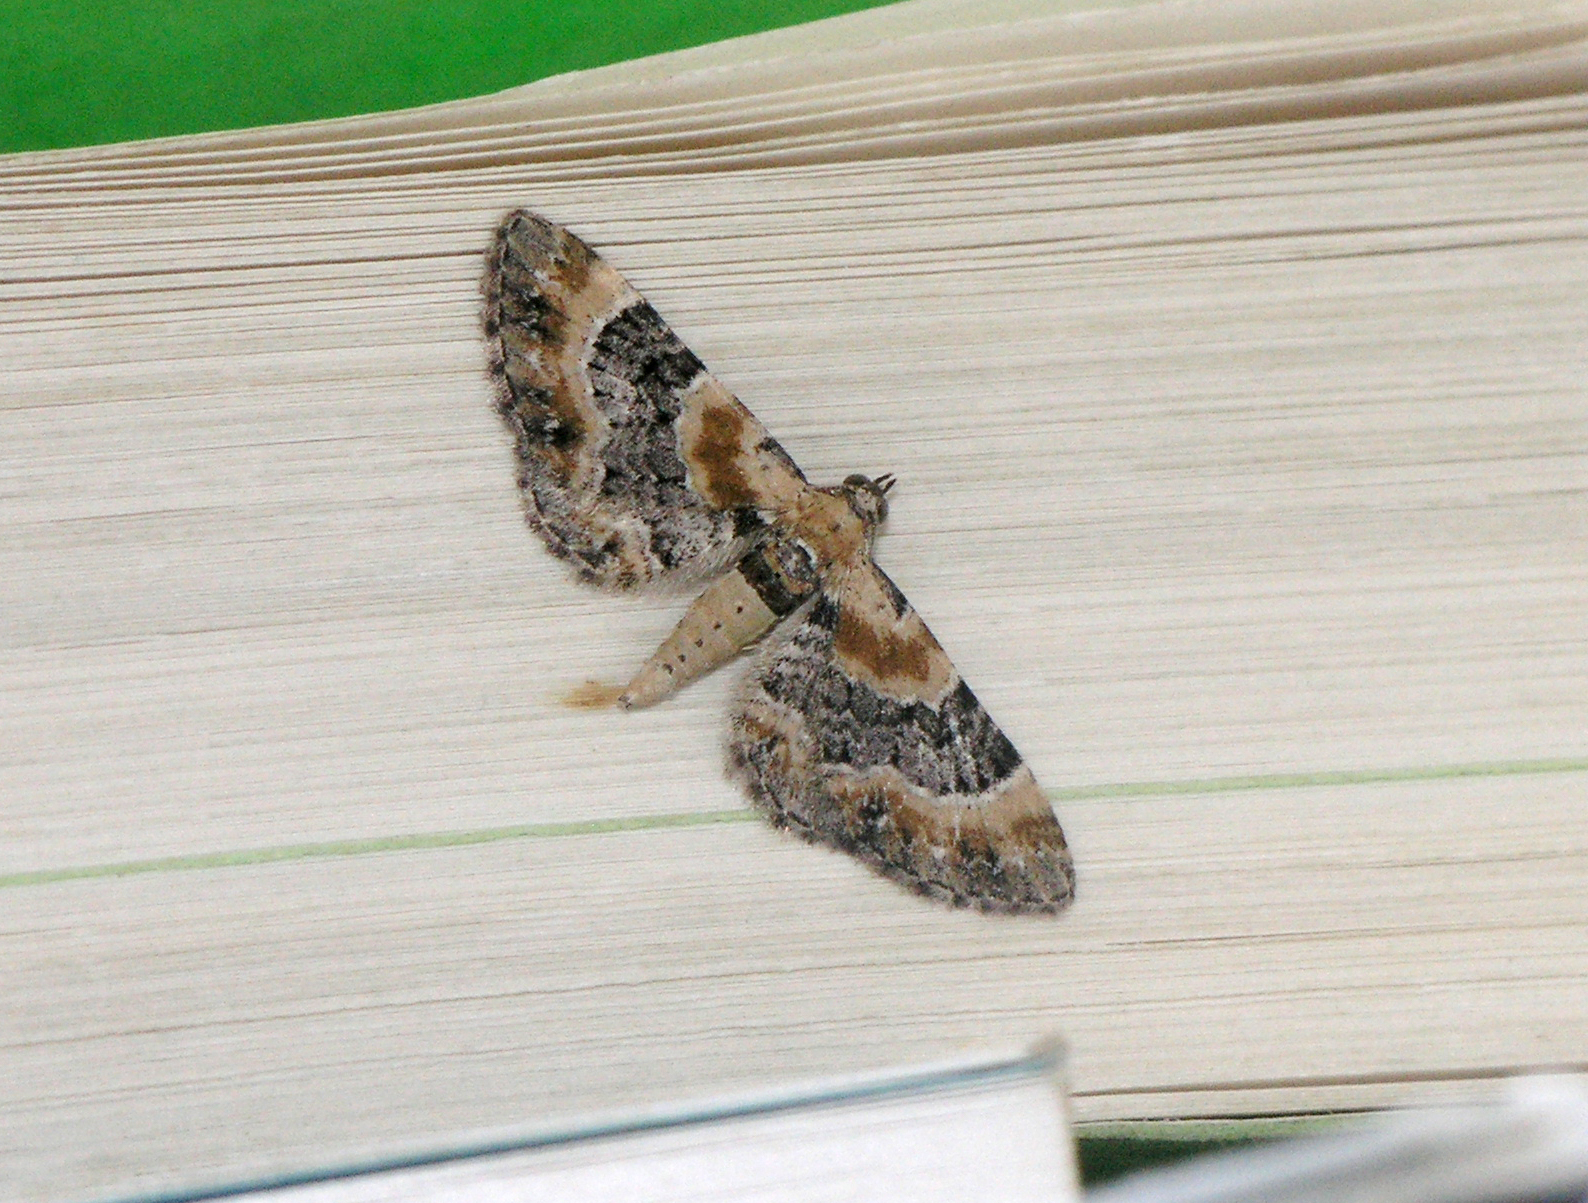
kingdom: Animalia
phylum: Arthropoda
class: Insecta
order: Lepidoptera
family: Geometridae
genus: Eupithecia
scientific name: Eupithecia linariata
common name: Toadflax pug
